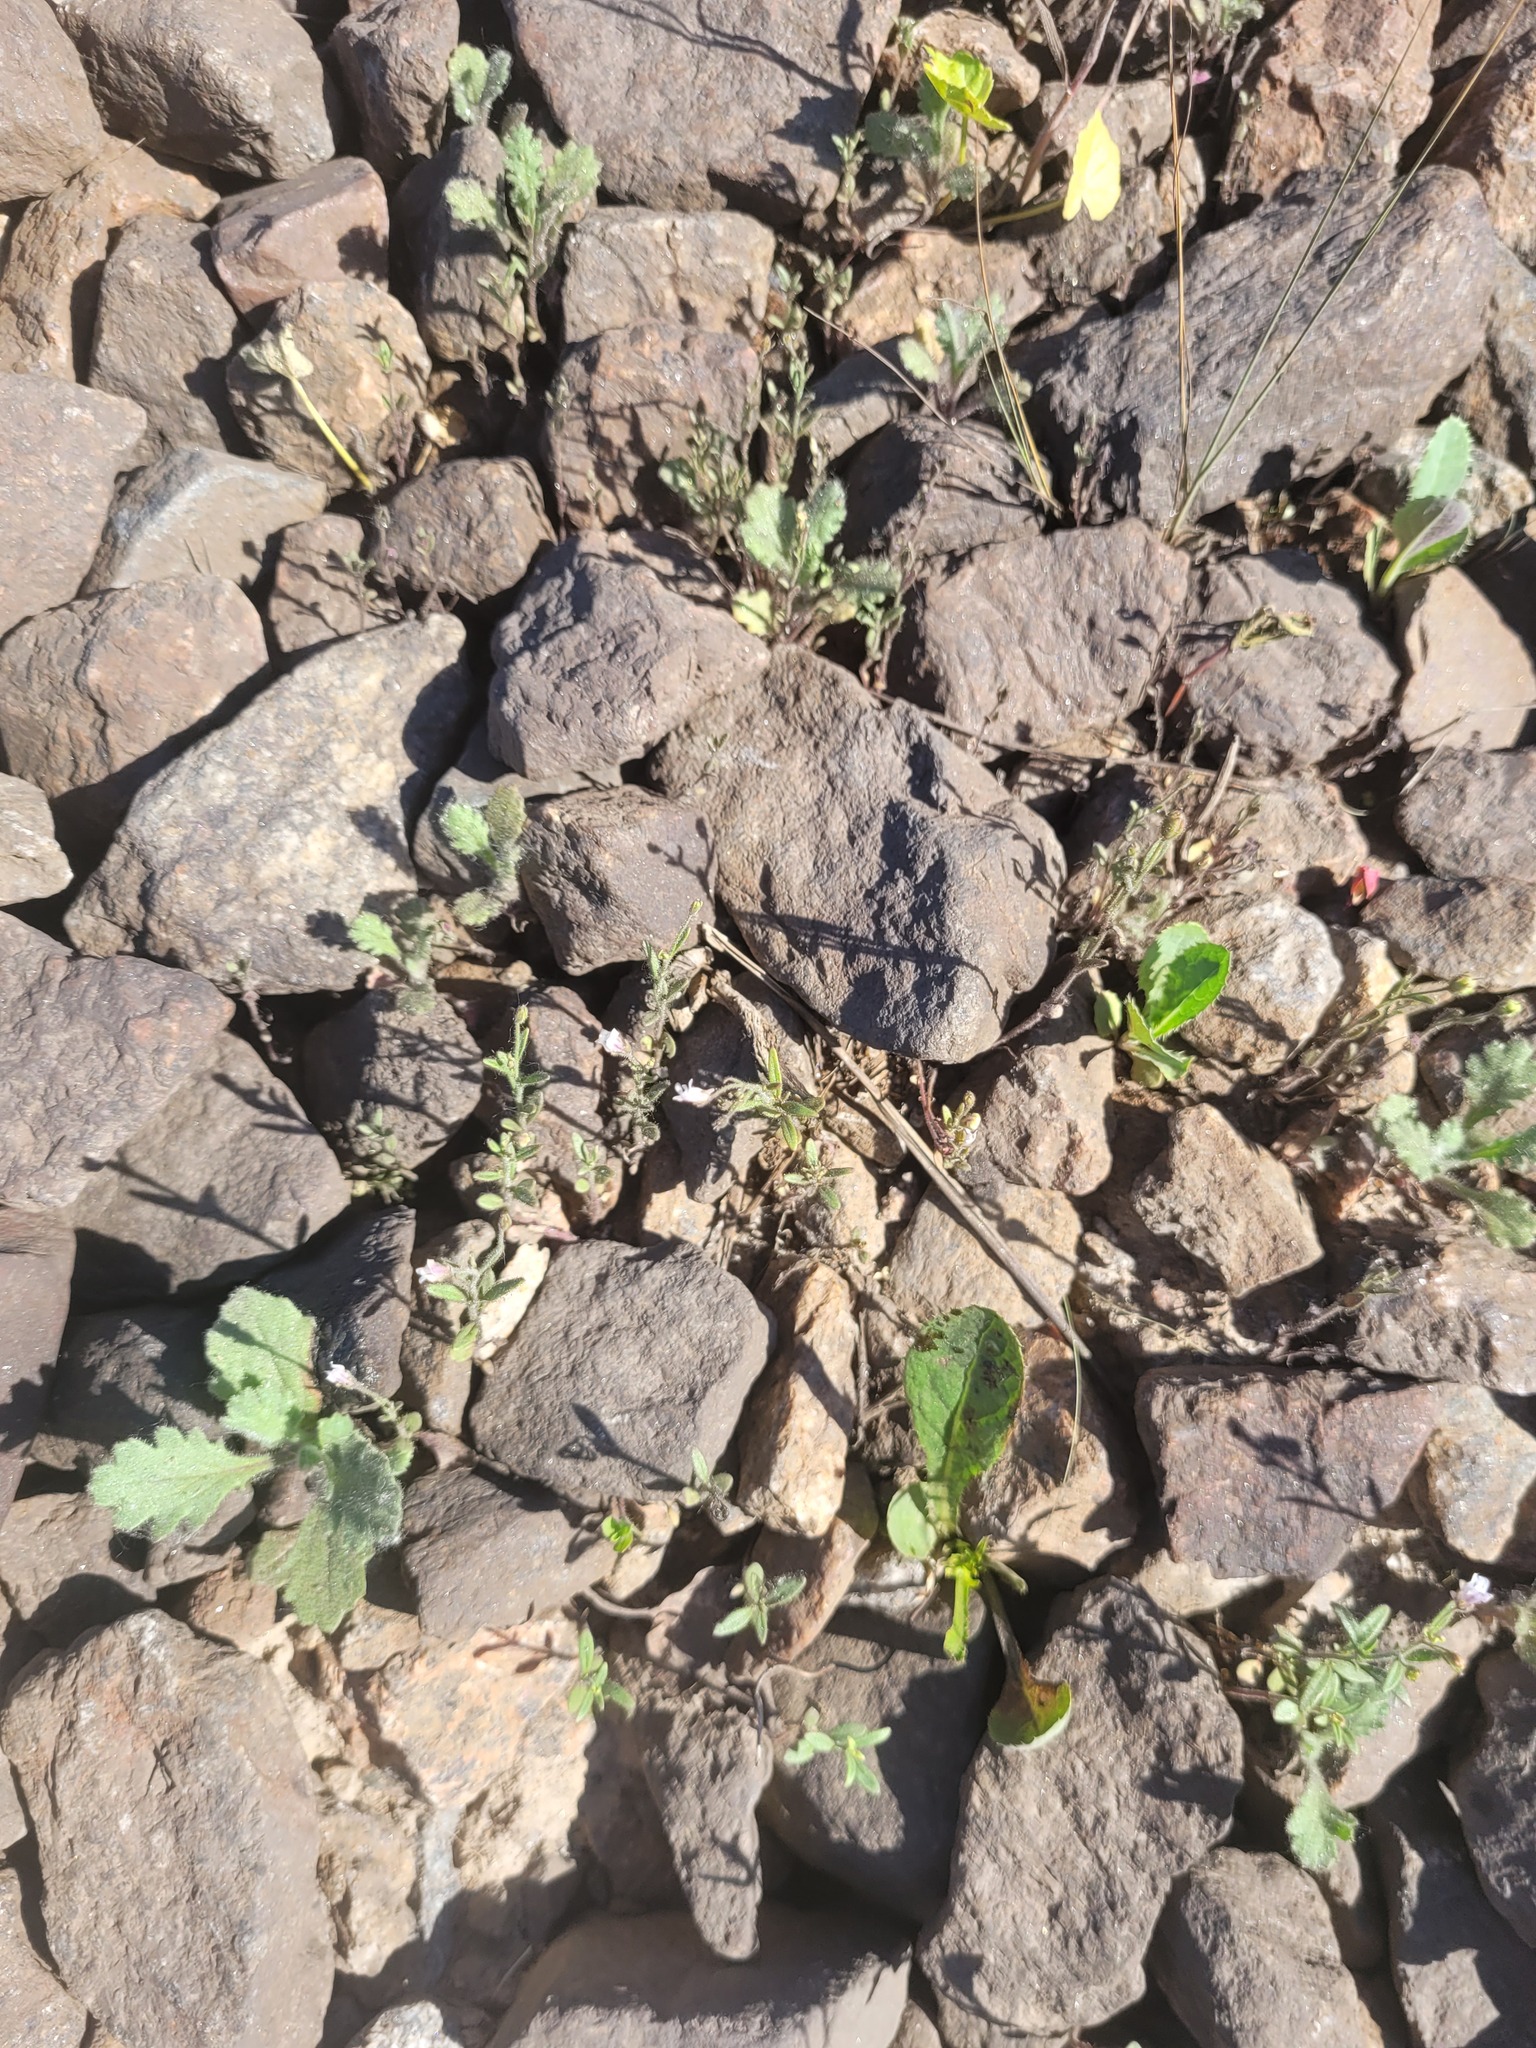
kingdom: Plantae
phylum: Tracheophyta
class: Magnoliopsida
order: Lamiales
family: Plantaginaceae
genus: Chaenorhinum
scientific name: Chaenorhinum minus
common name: Dwarf snapdragon
